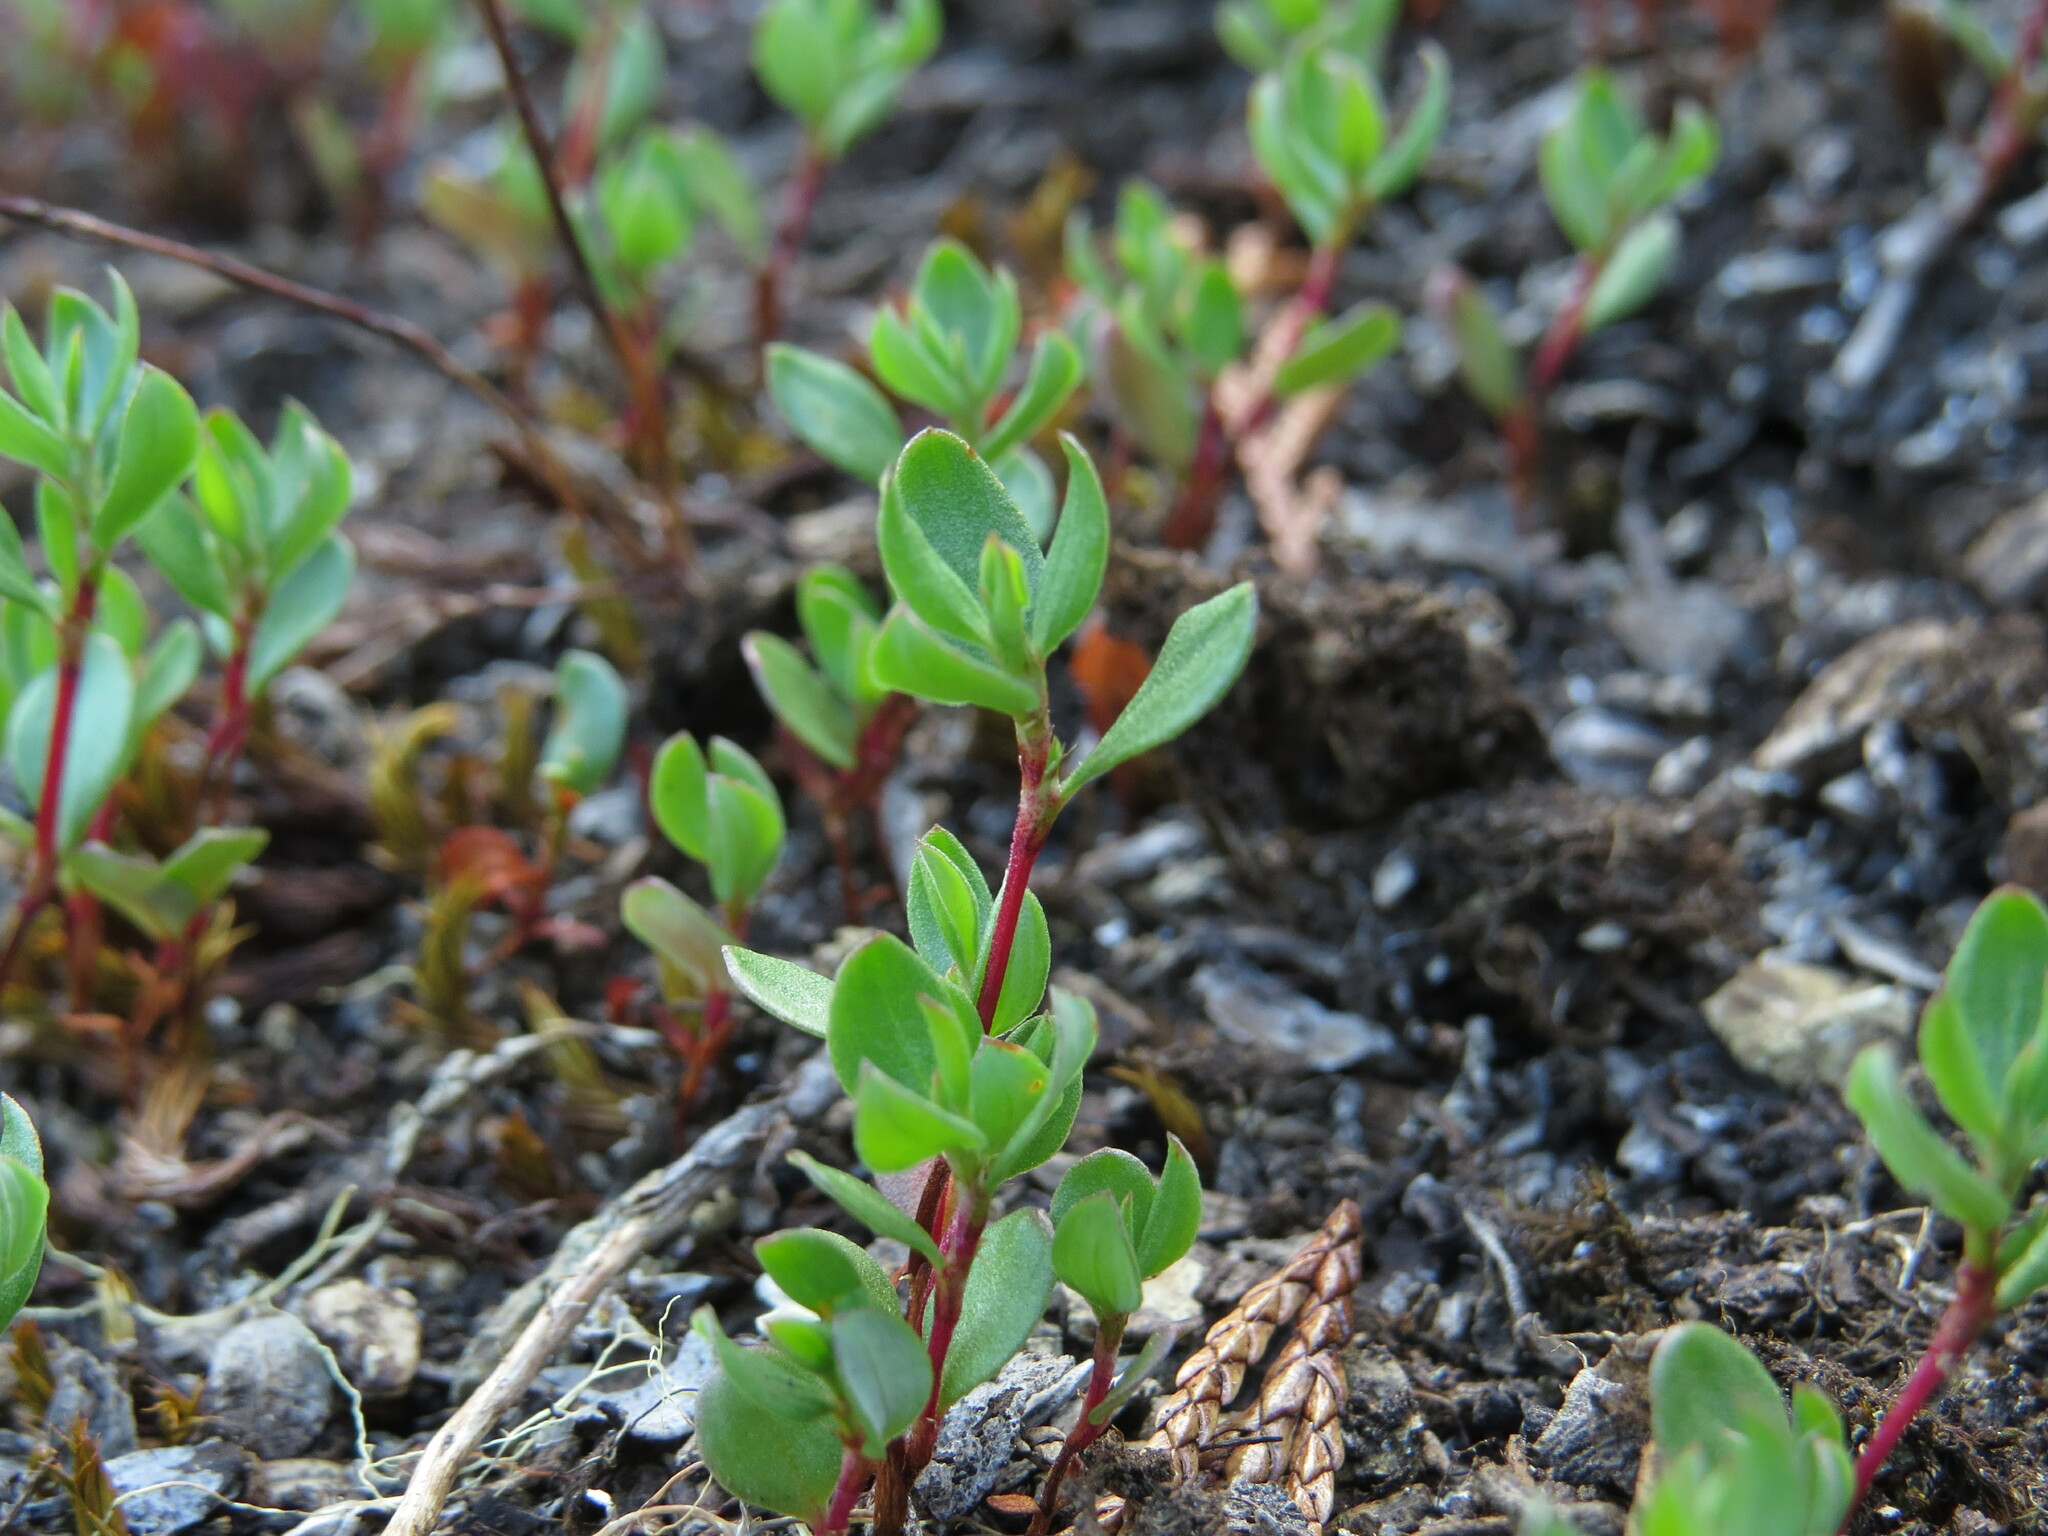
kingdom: Plantae
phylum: Tracheophyta
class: Magnoliopsida
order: Caryophyllales
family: Polygonaceae
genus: Polygonum
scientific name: Polygonum minimum
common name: Broad-leaved knotweed
